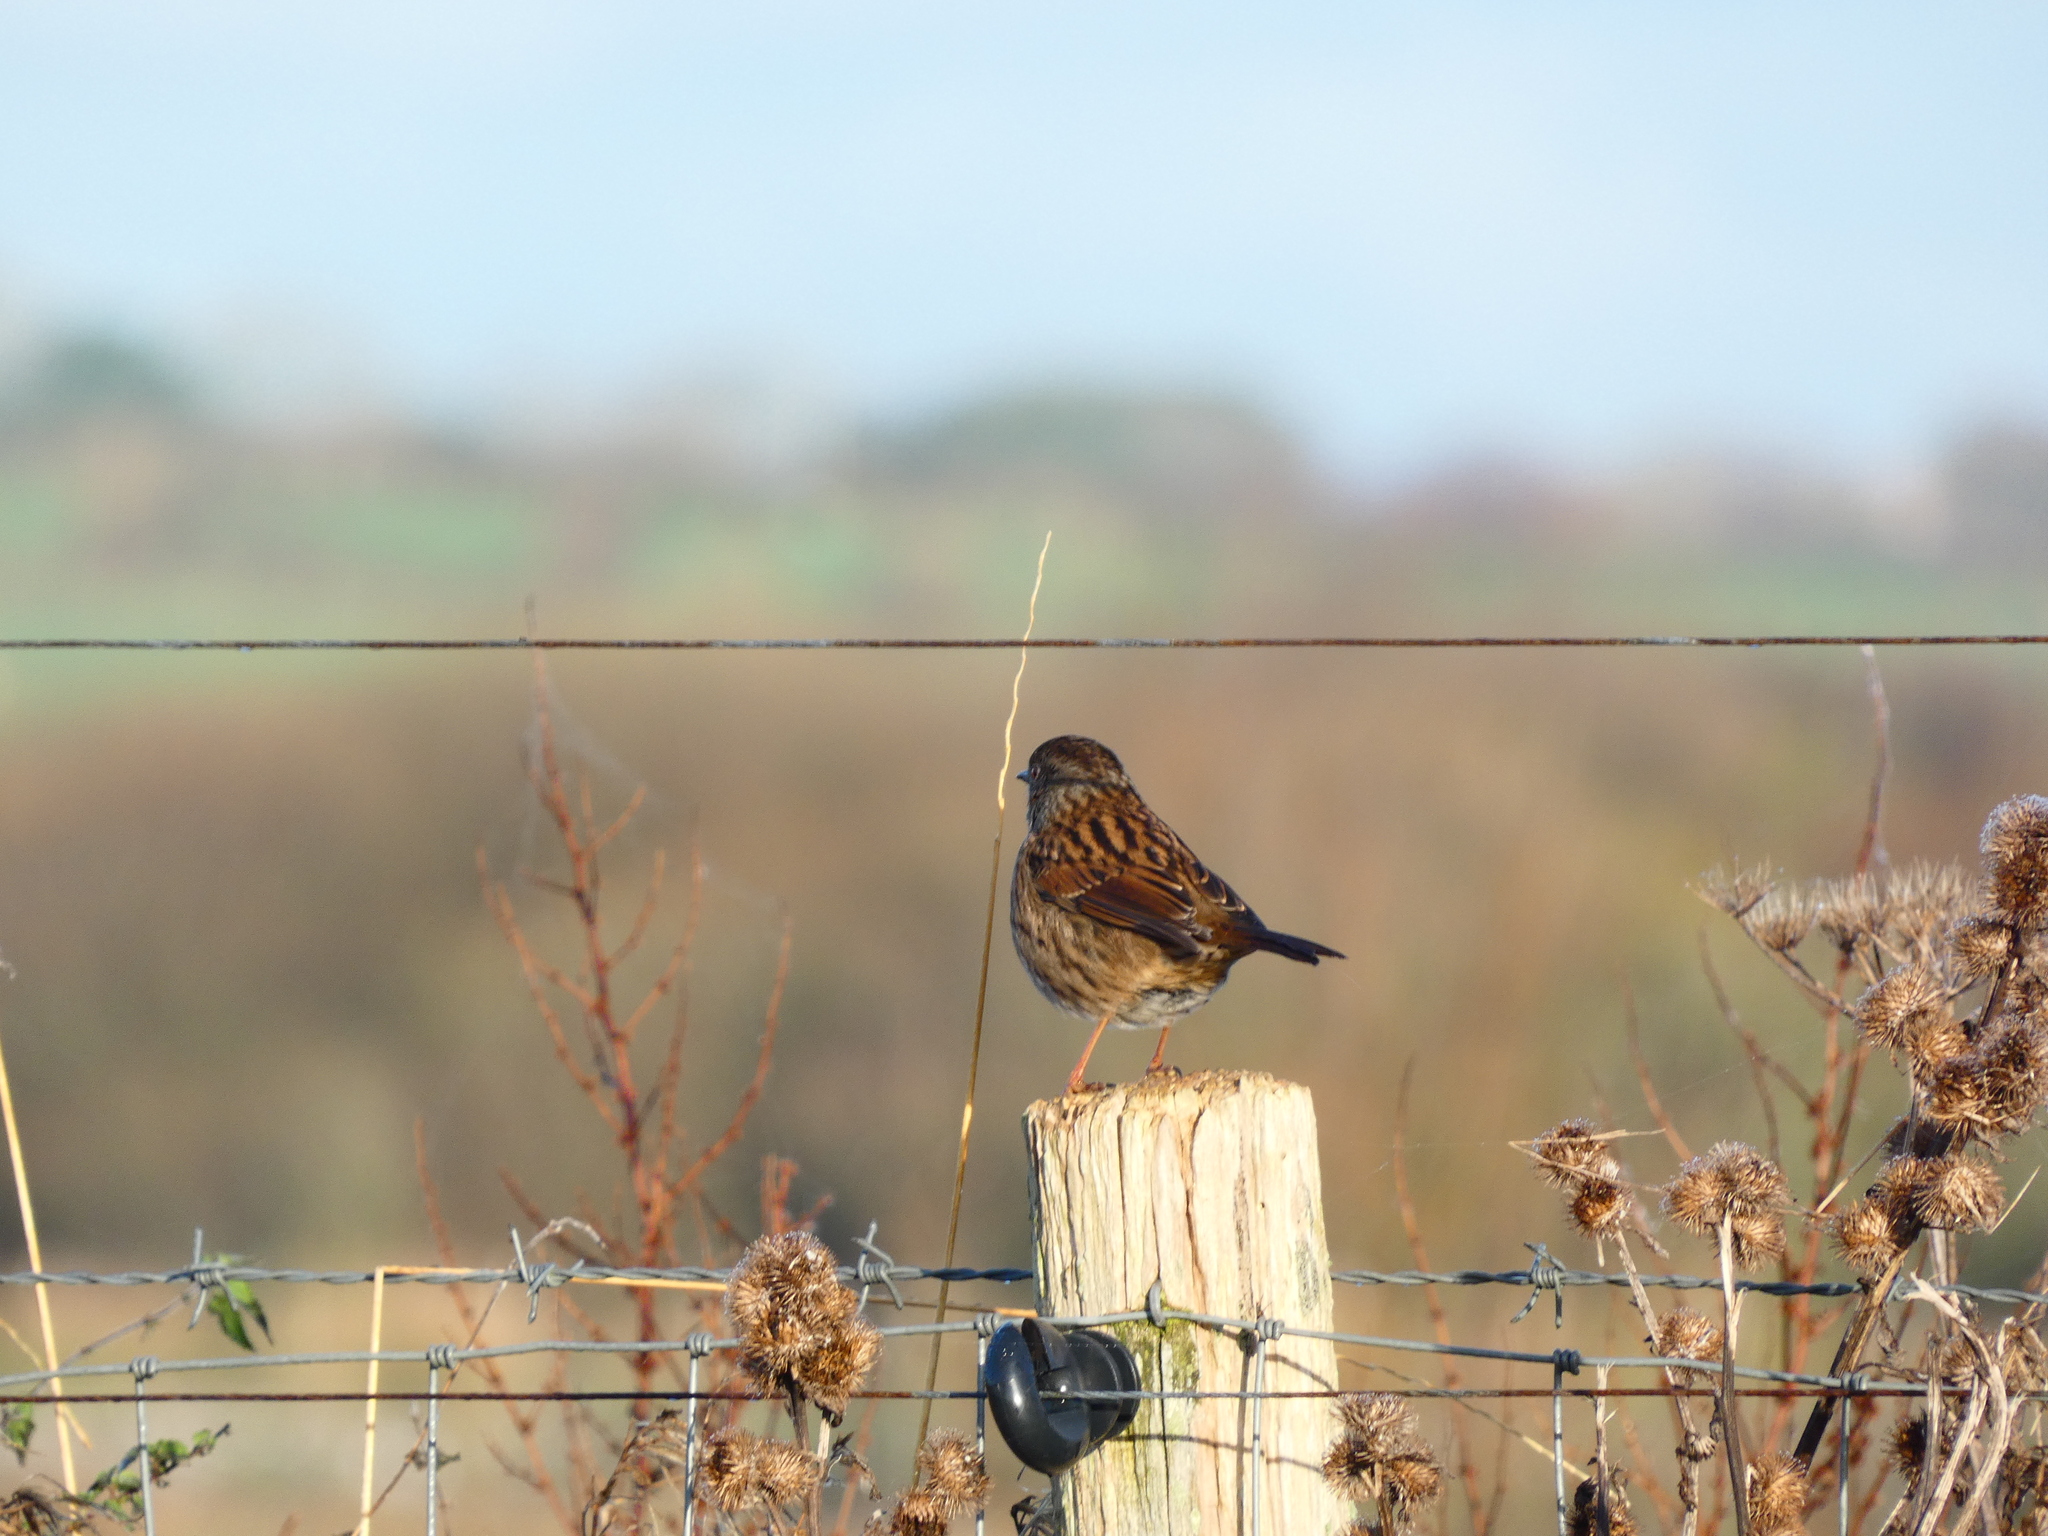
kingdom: Animalia
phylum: Chordata
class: Aves
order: Passeriformes
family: Prunellidae
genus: Prunella
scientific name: Prunella modularis
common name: Dunnock
